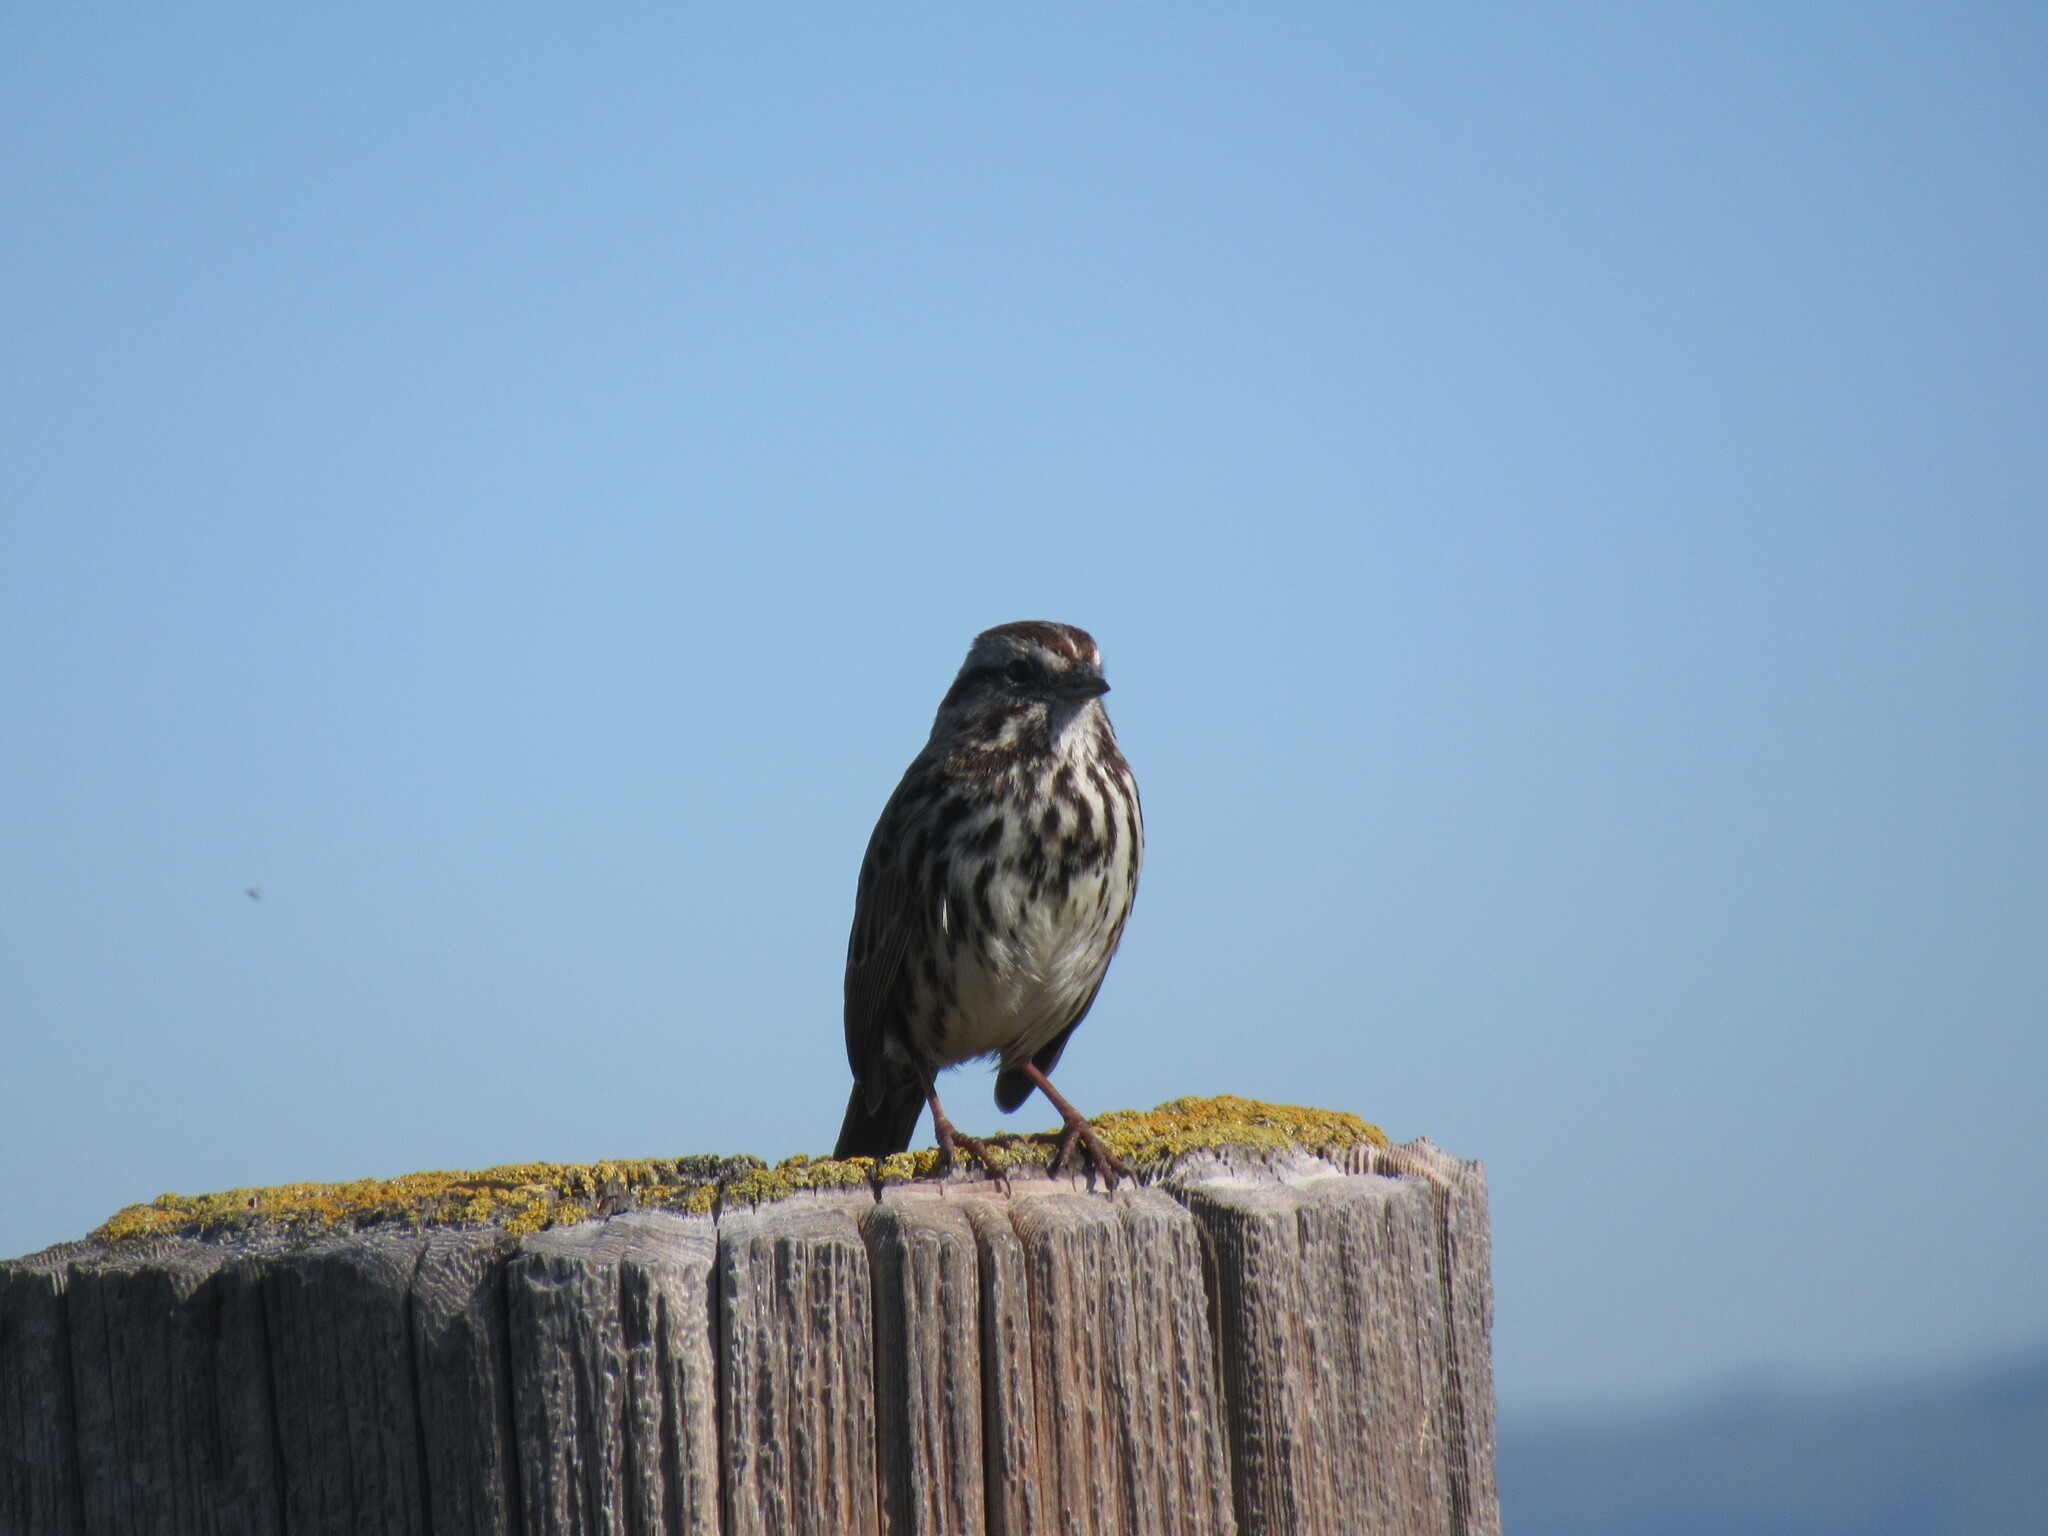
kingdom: Animalia
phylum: Chordata
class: Aves
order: Passeriformes
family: Passerellidae
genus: Melospiza
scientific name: Melospiza melodia
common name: Song sparrow
